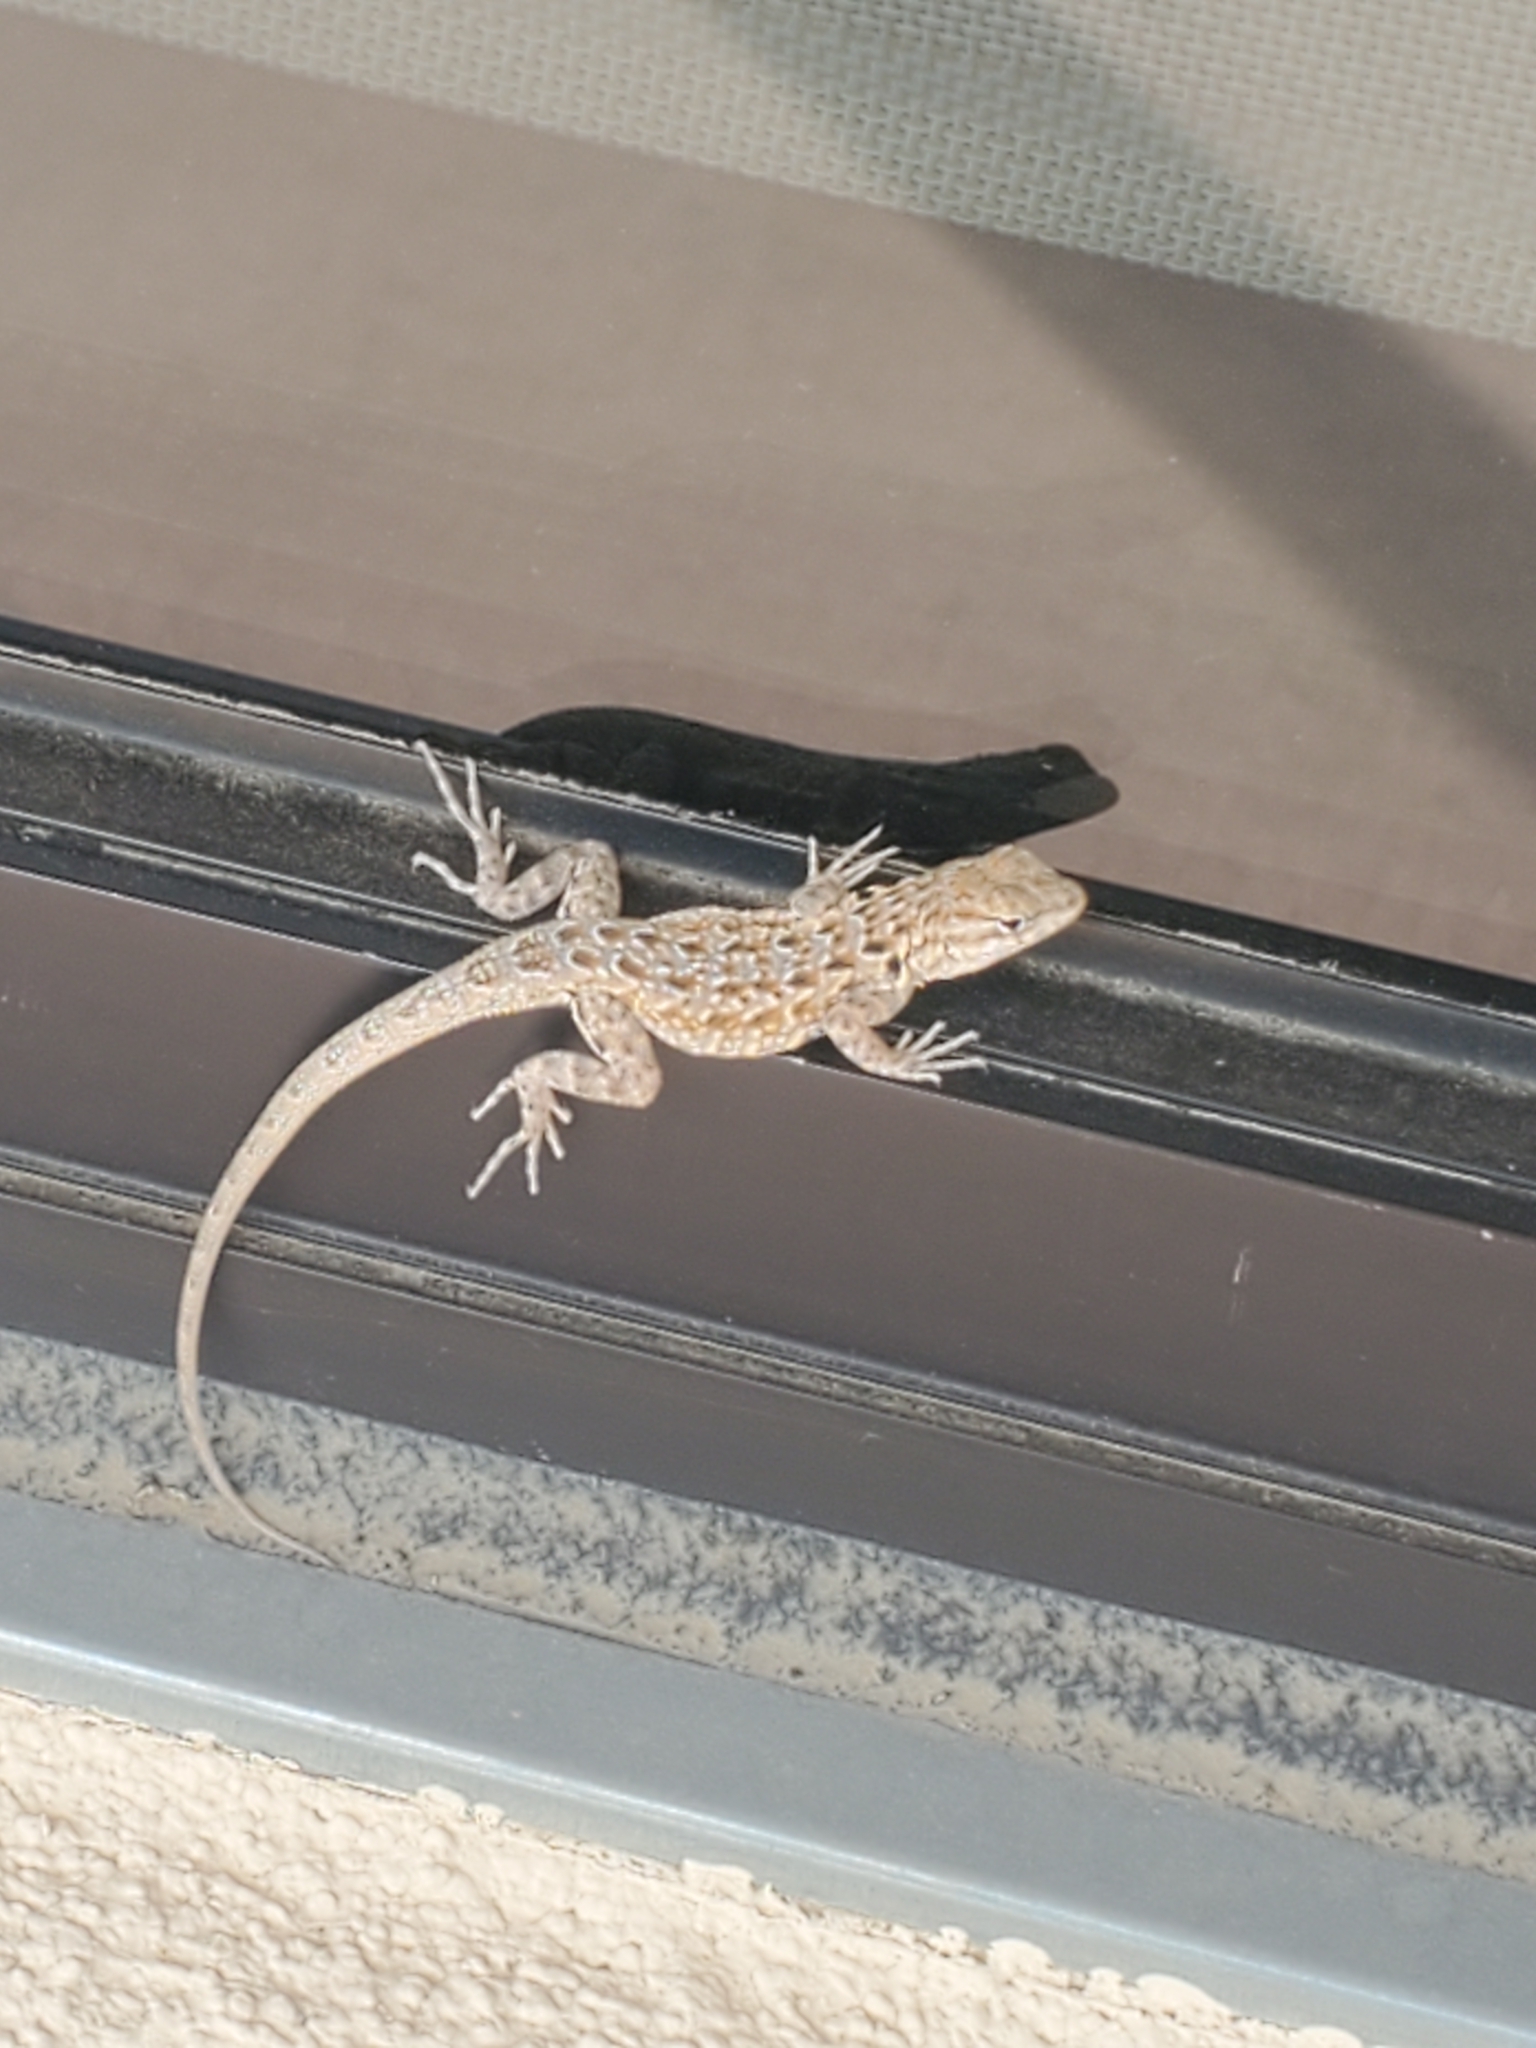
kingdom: Animalia
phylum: Chordata
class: Squamata
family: Phrynosomatidae
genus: Uta
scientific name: Uta stansburiana
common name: Side-blotched lizard
